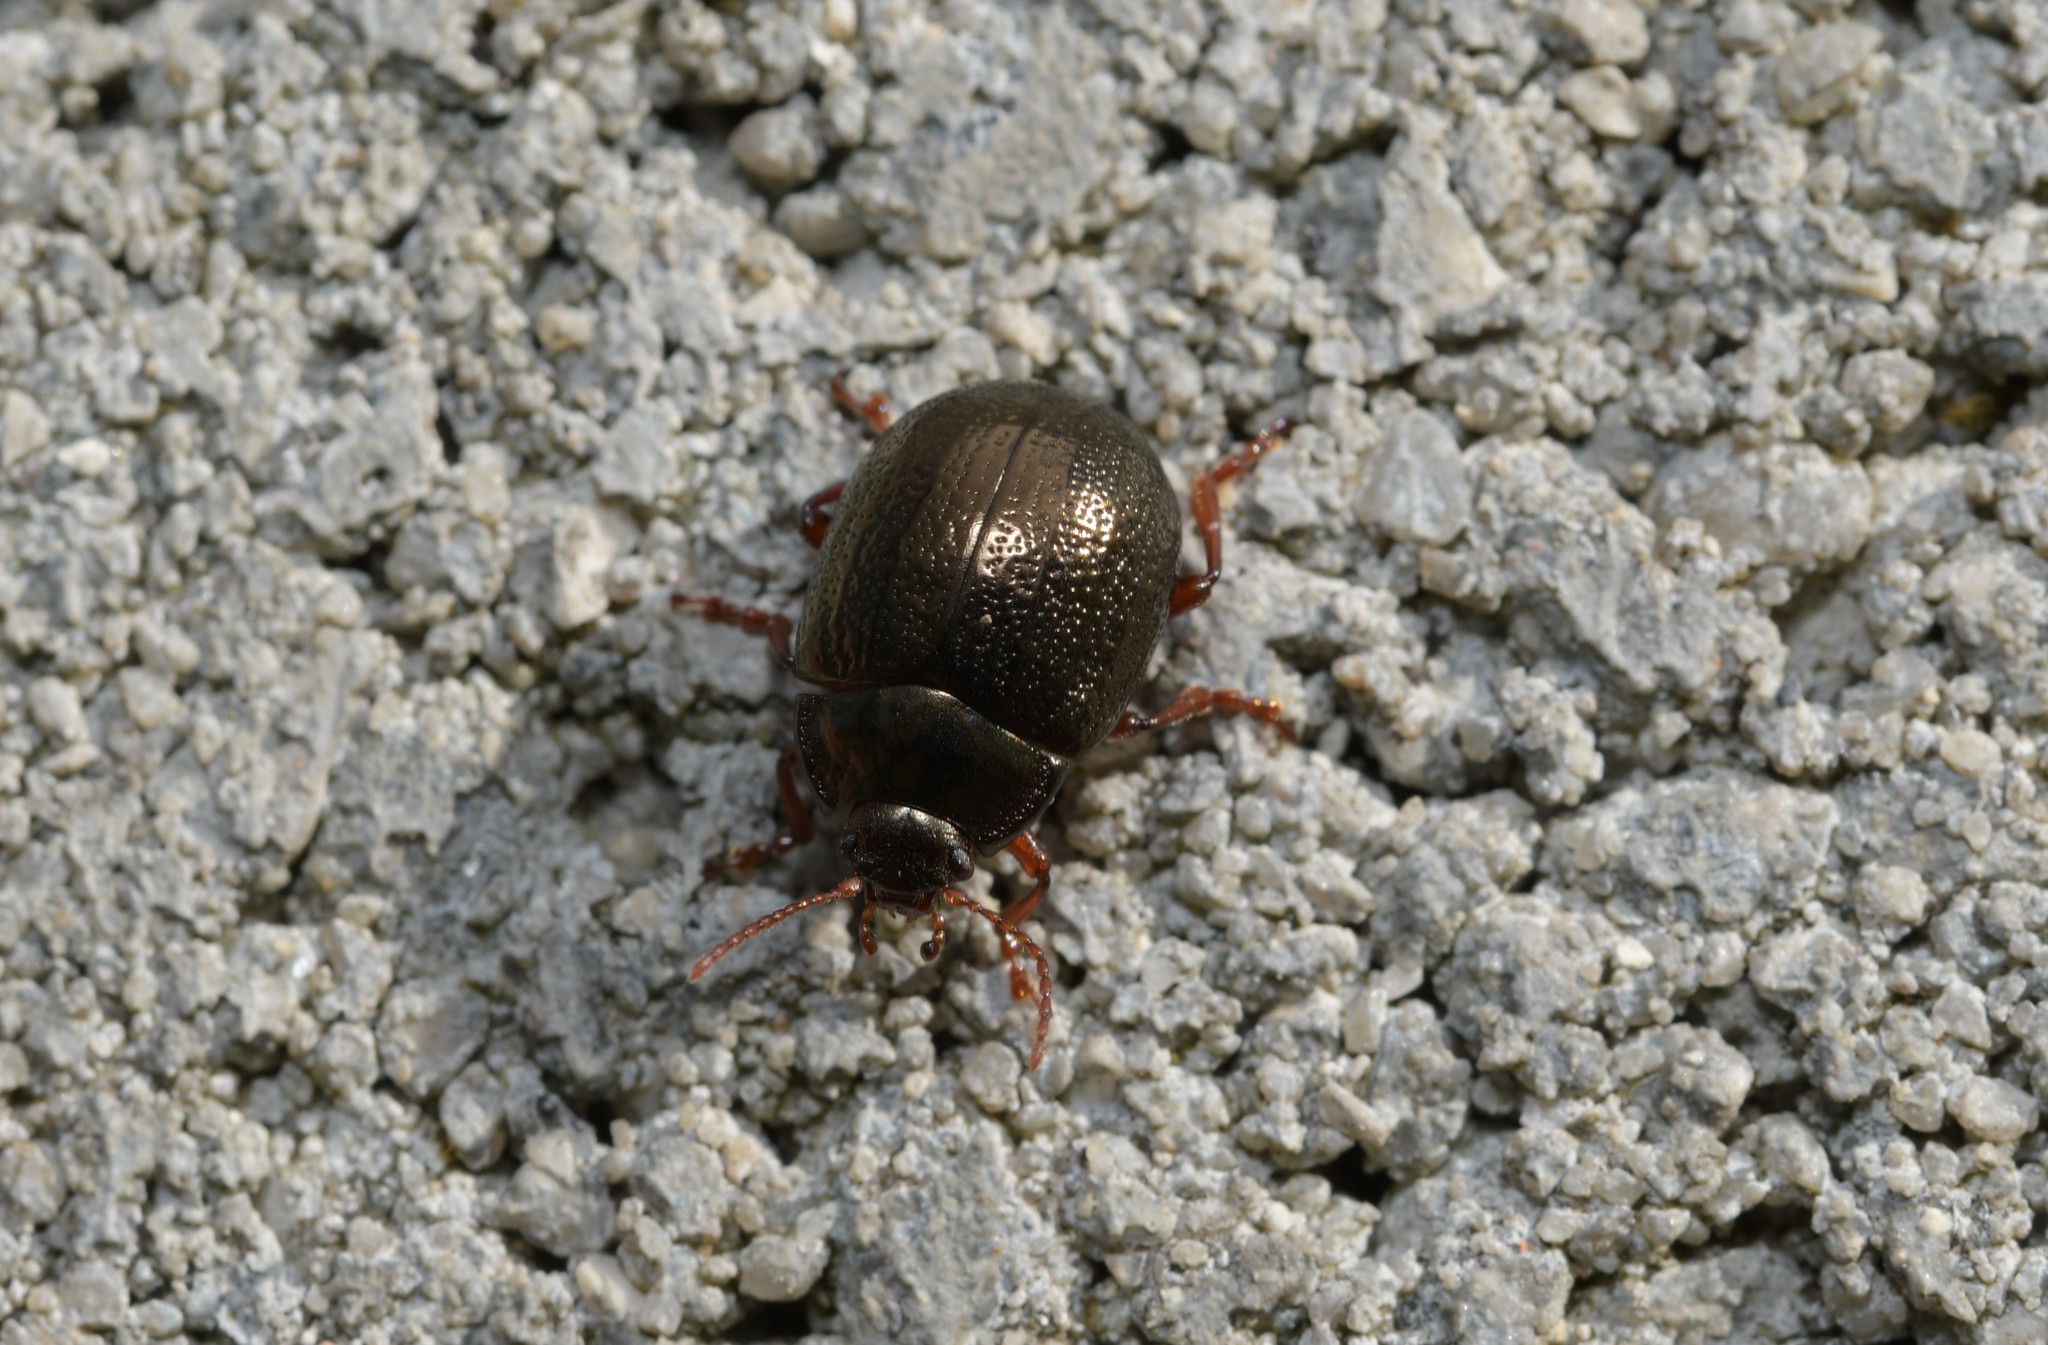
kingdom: Animalia
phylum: Arthropoda
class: Insecta
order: Coleoptera
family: Chrysomelidae
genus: Chrysolina
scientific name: Chrysolina bankii
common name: Leaf beetle
